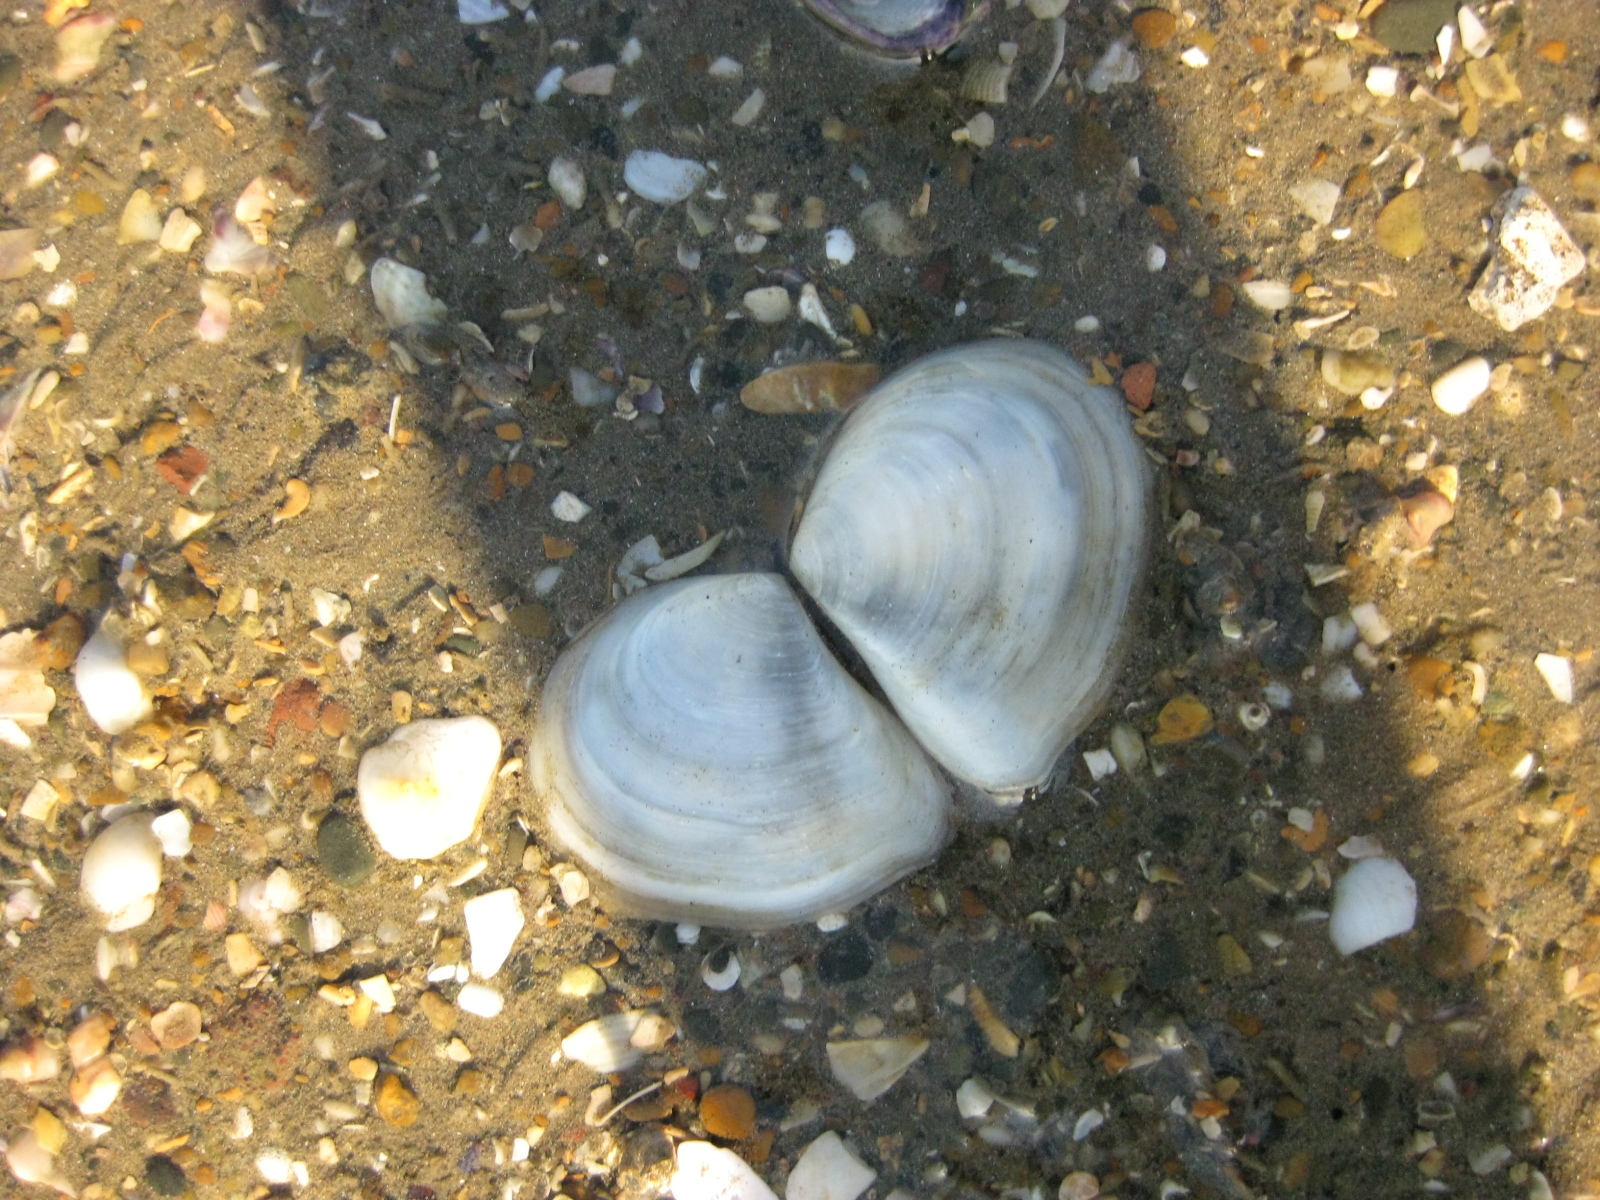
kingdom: Animalia
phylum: Mollusca
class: Bivalvia
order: Cardiida
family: Tellinidae
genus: Macomona
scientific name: Macomona liliana
